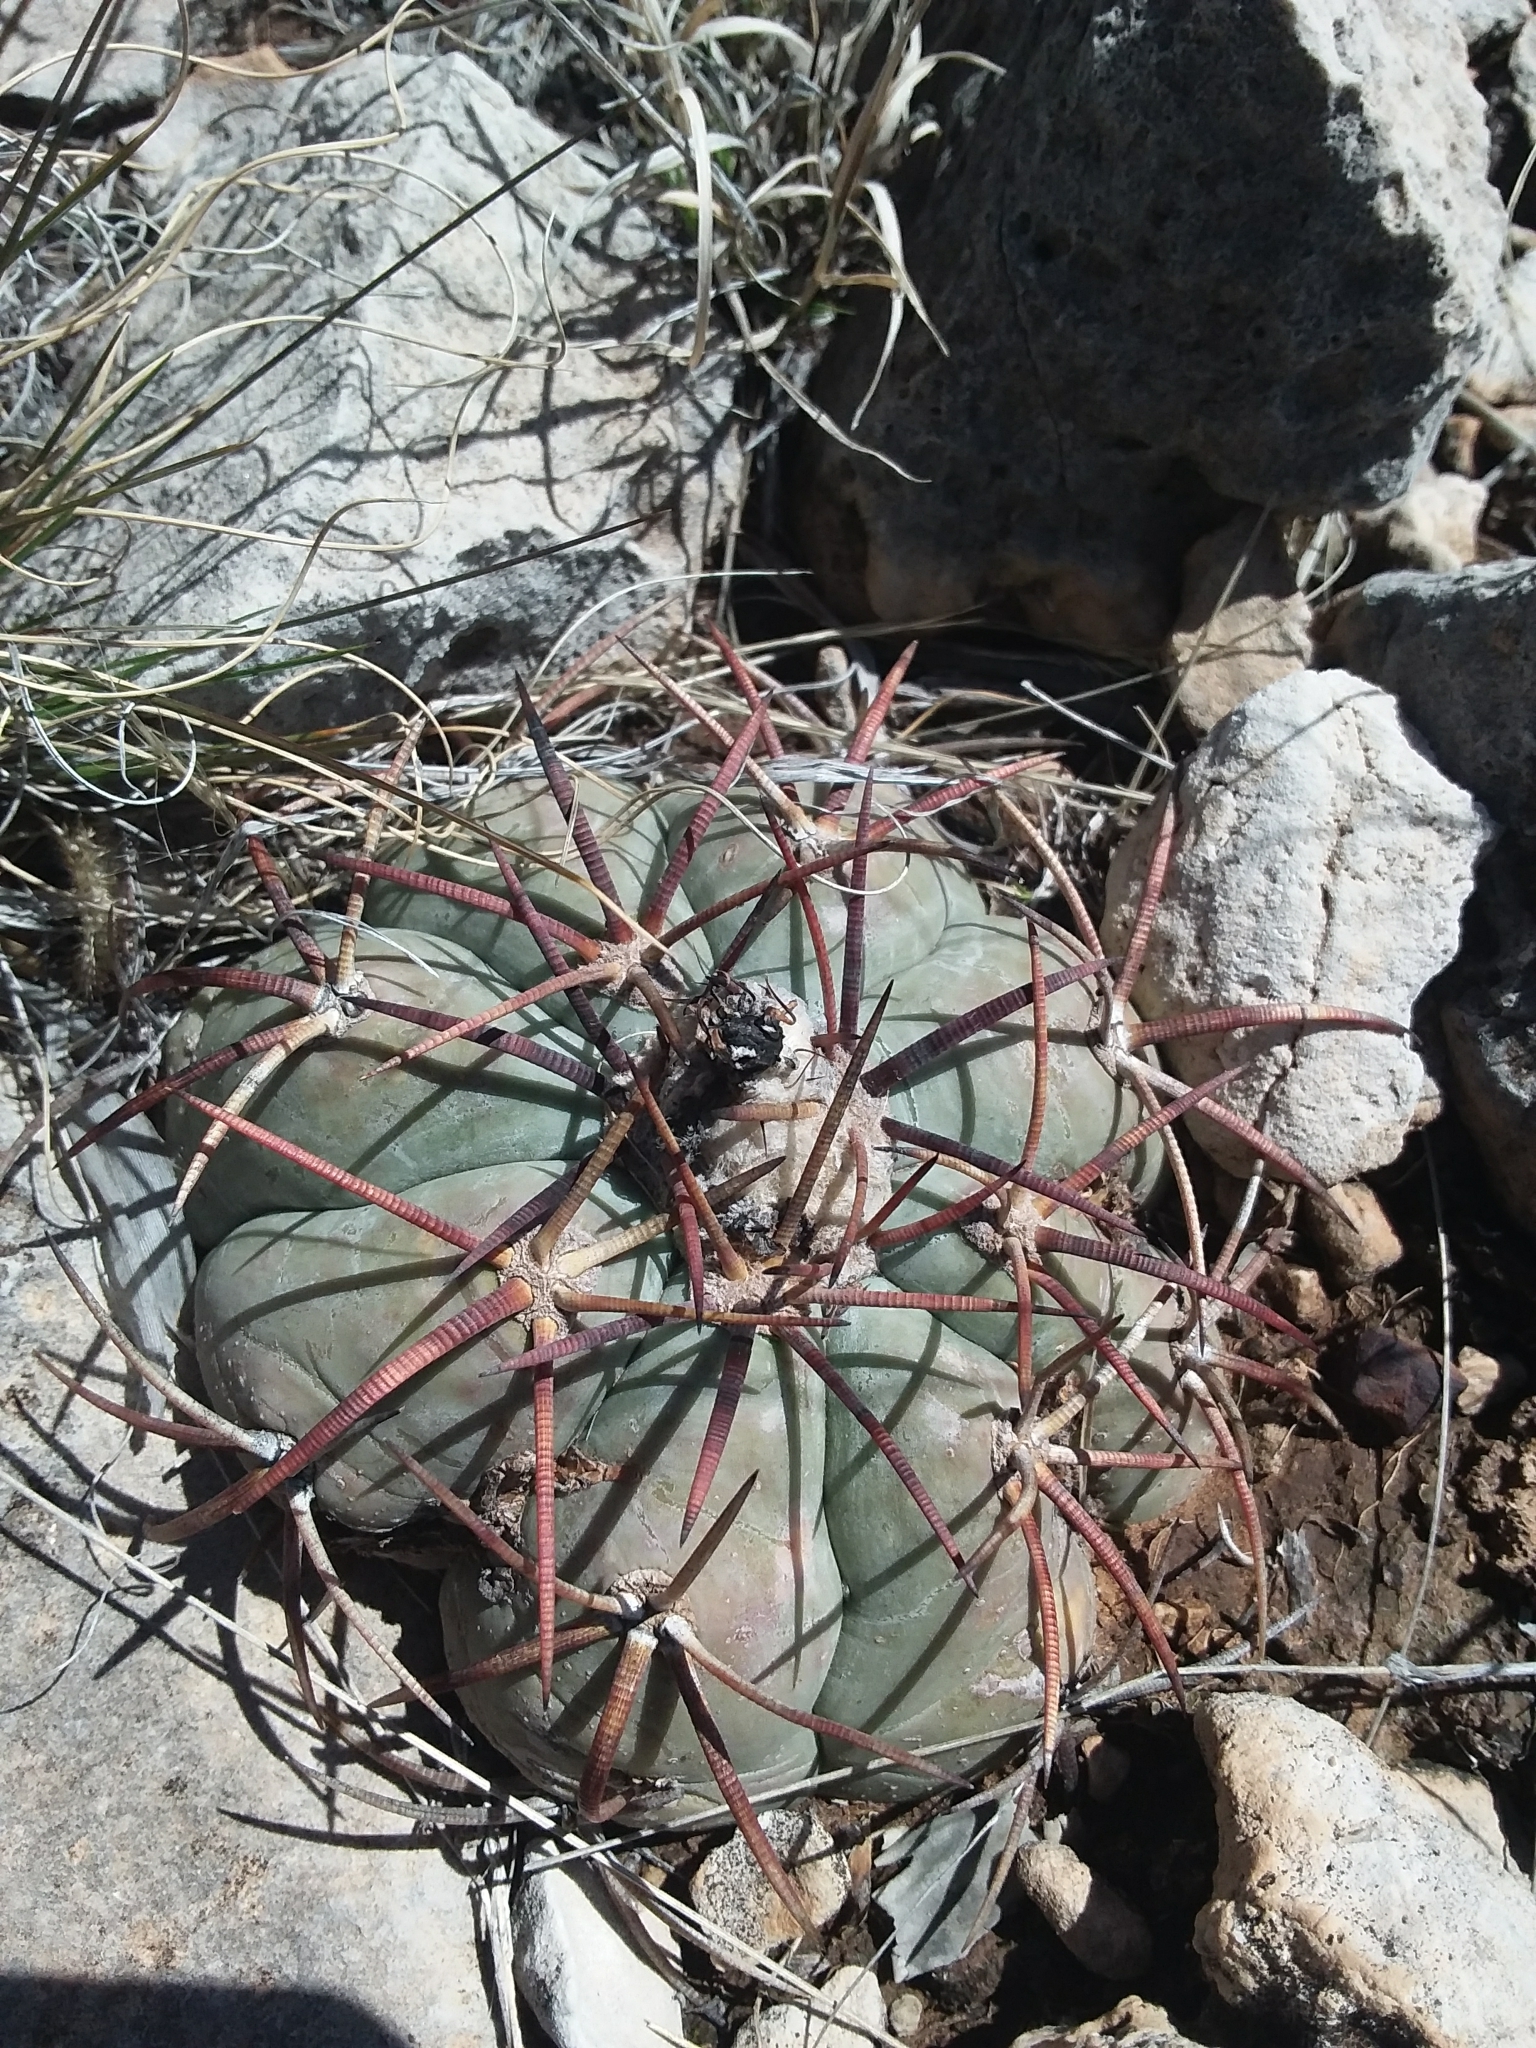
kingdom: Plantae
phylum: Tracheophyta
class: Magnoliopsida
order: Caryophyllales
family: Cactaceae
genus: Echinocactus
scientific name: Echinocactus horizonthalonius
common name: Devilshead
